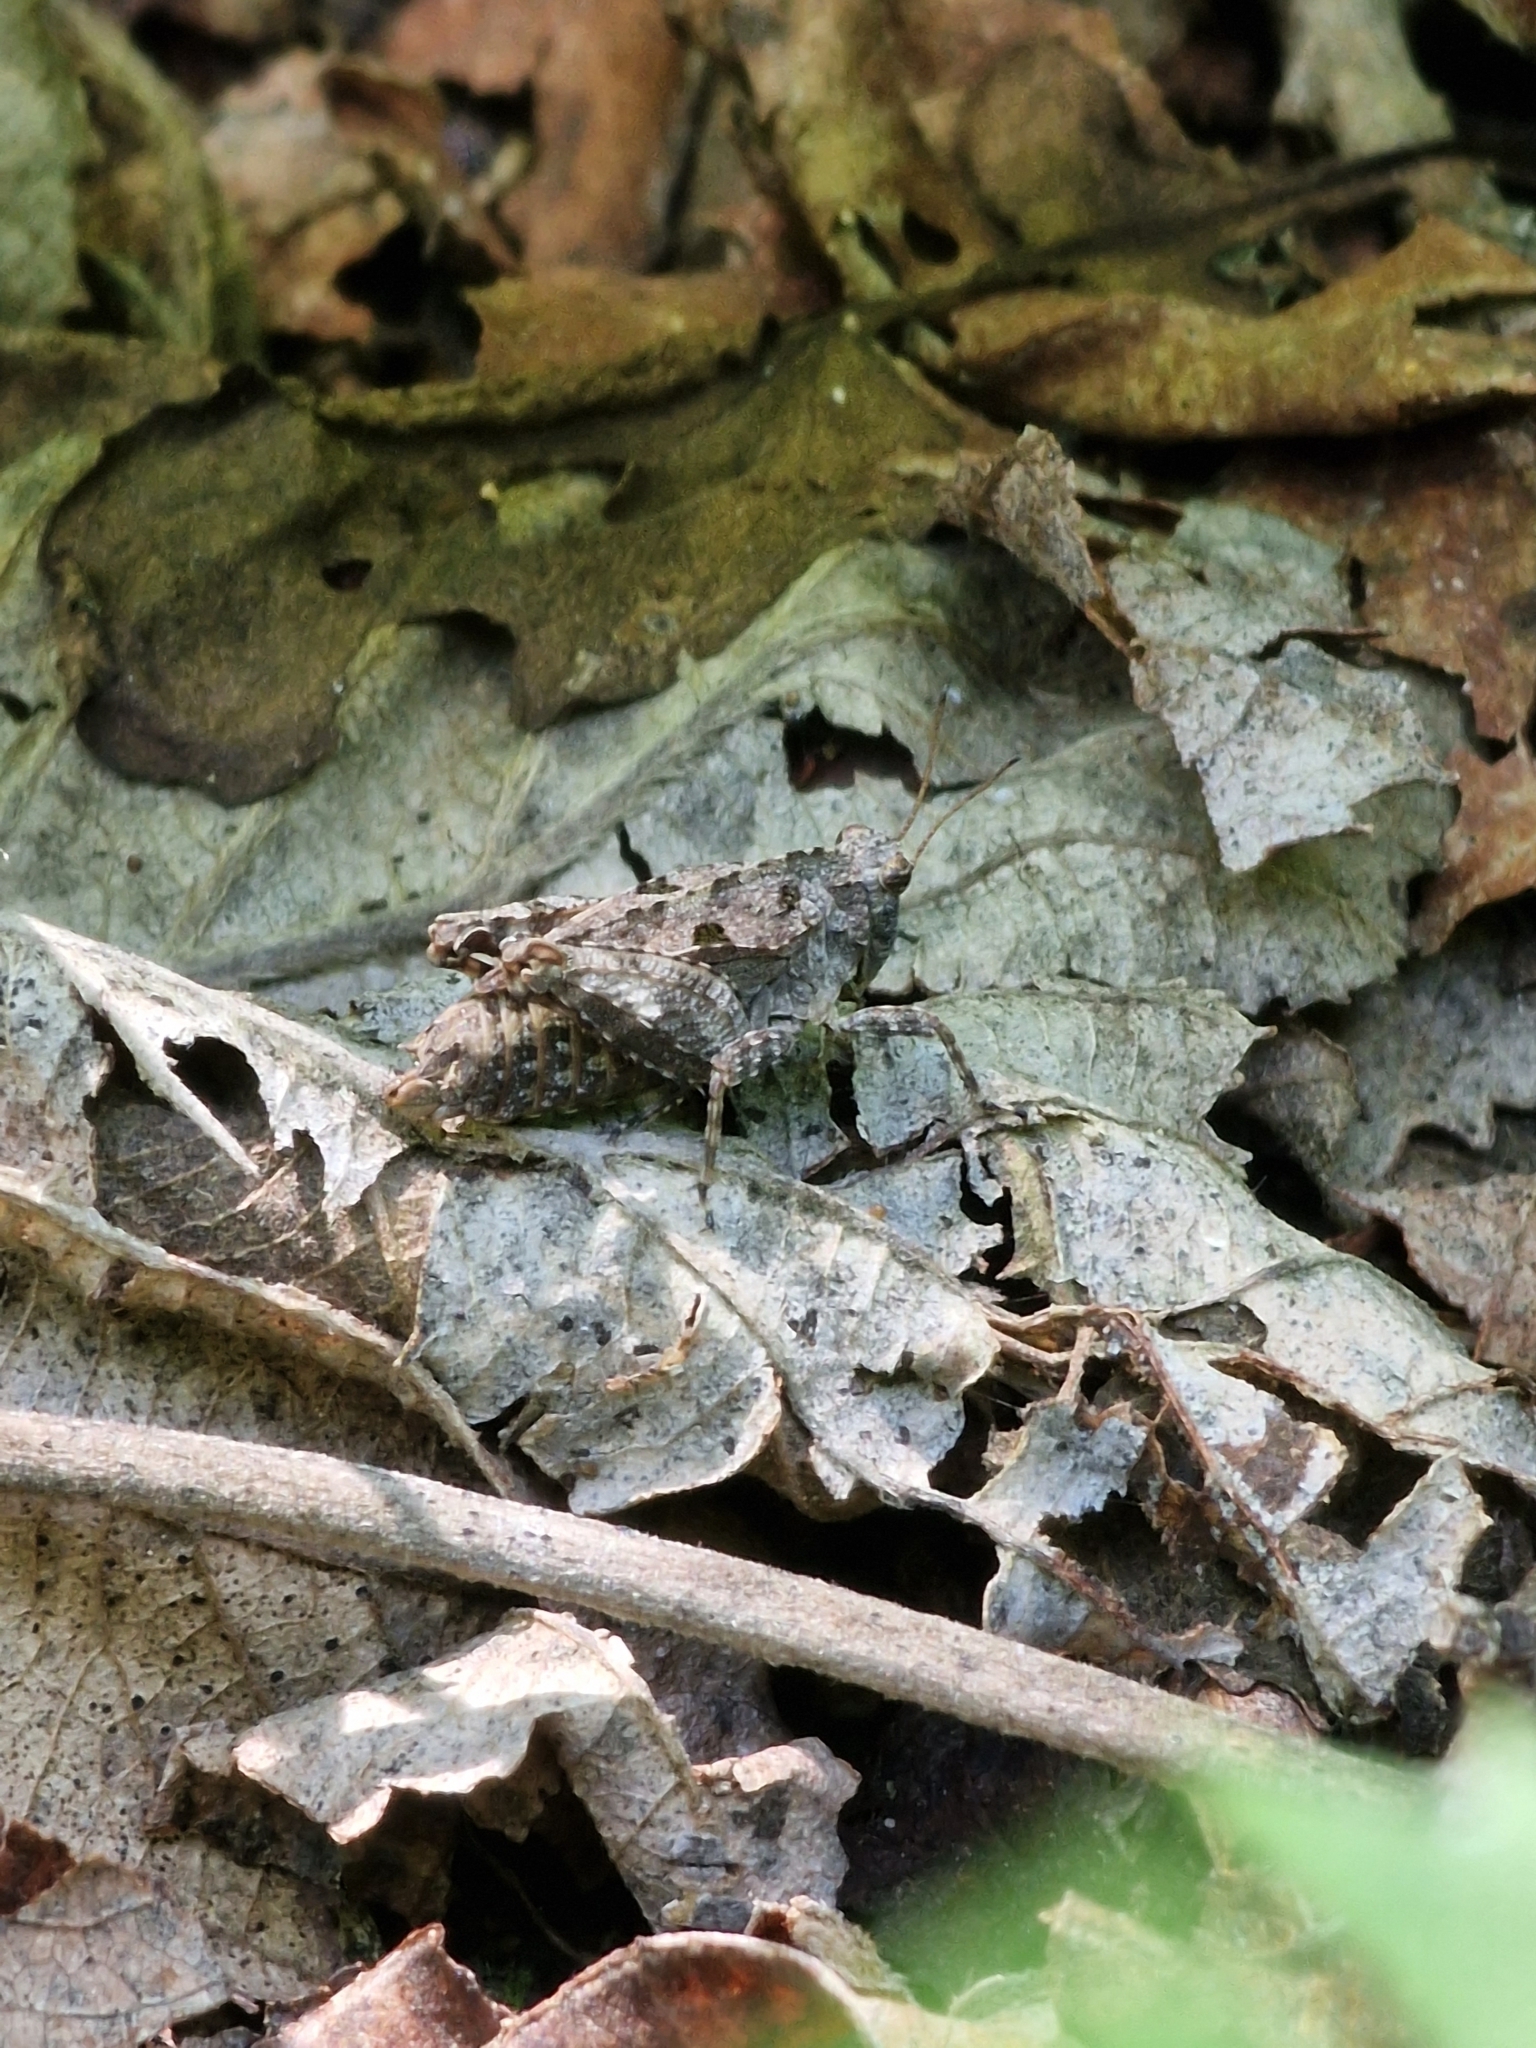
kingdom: Animalia
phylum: Arthropoda
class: Insecta
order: Orthoptera
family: Tetrigidae
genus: Tetrix
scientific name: Tetrix tenuicornis
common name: Long-horned groundhopper
